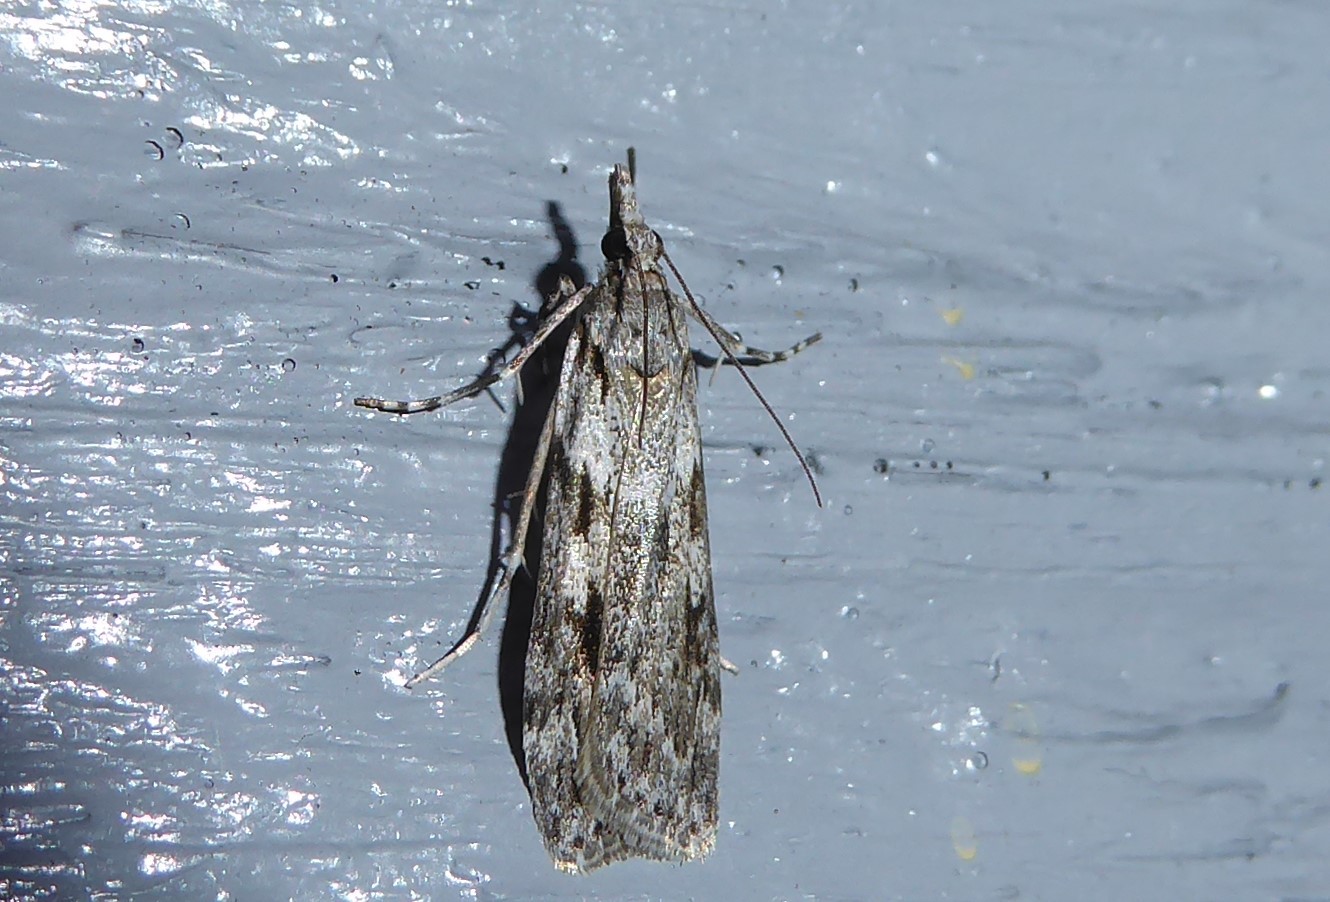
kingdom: Animalia
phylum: Arthropoda
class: Insecta
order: Lepidoptera
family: Crambidae
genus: Scoparia
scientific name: Scoparia halopis
